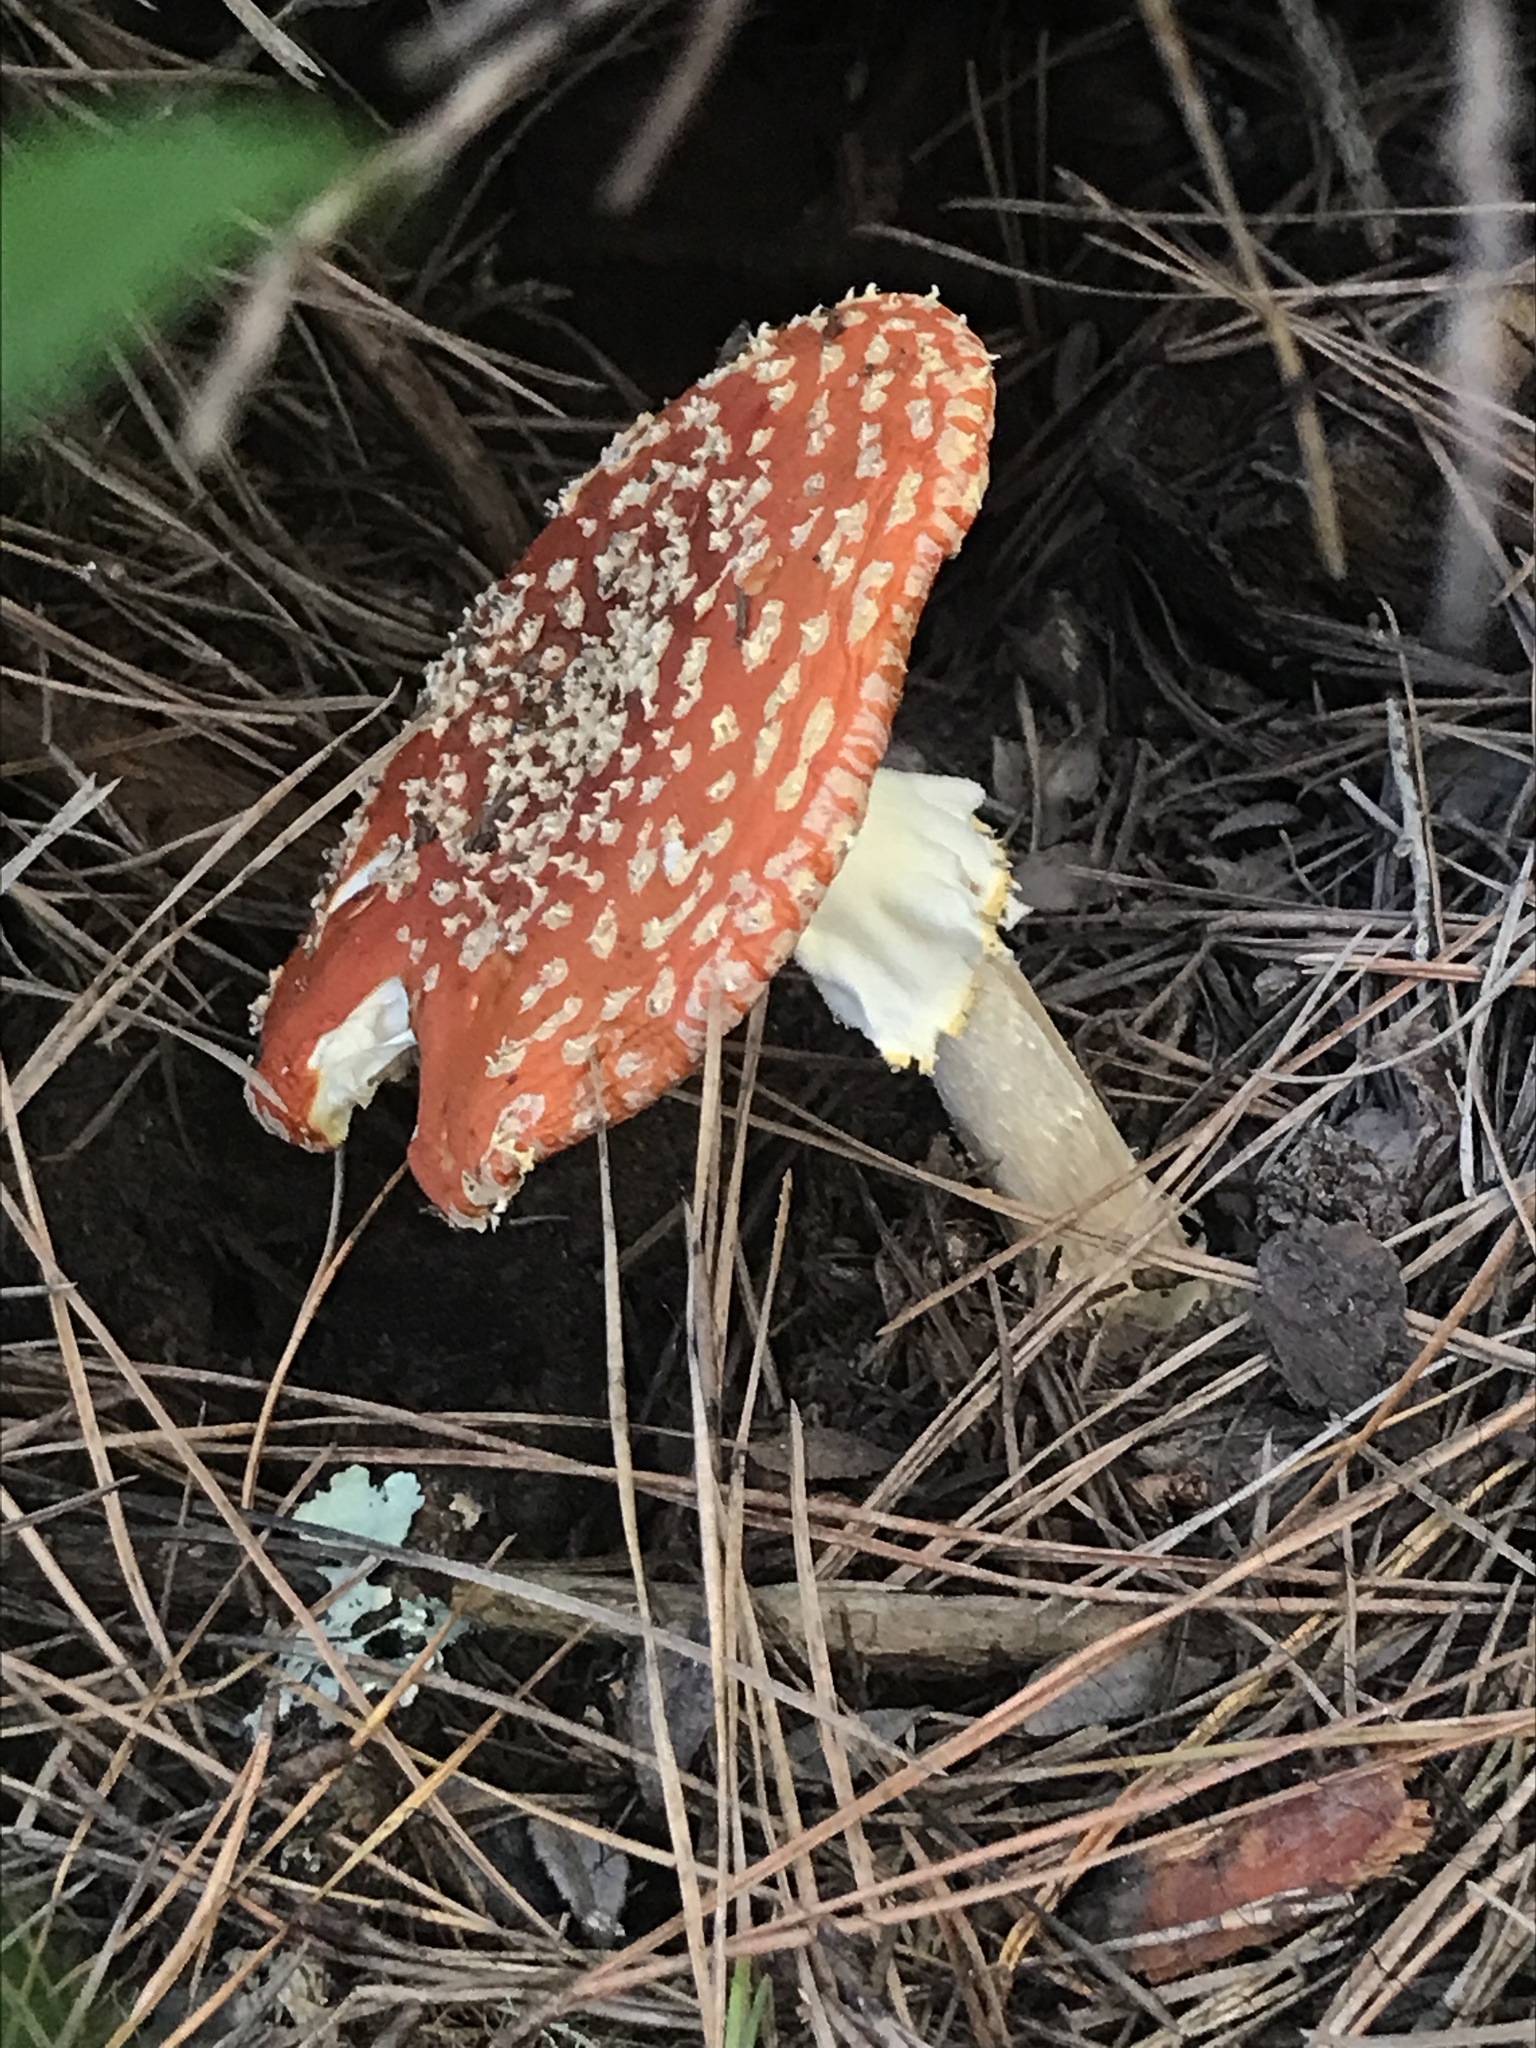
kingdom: Fungi
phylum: Basidiomycota
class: Agaricomycetes
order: Agaricales
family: Amanitaceae
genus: Amanita
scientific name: Amanita muscaria
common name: Fly agaric
